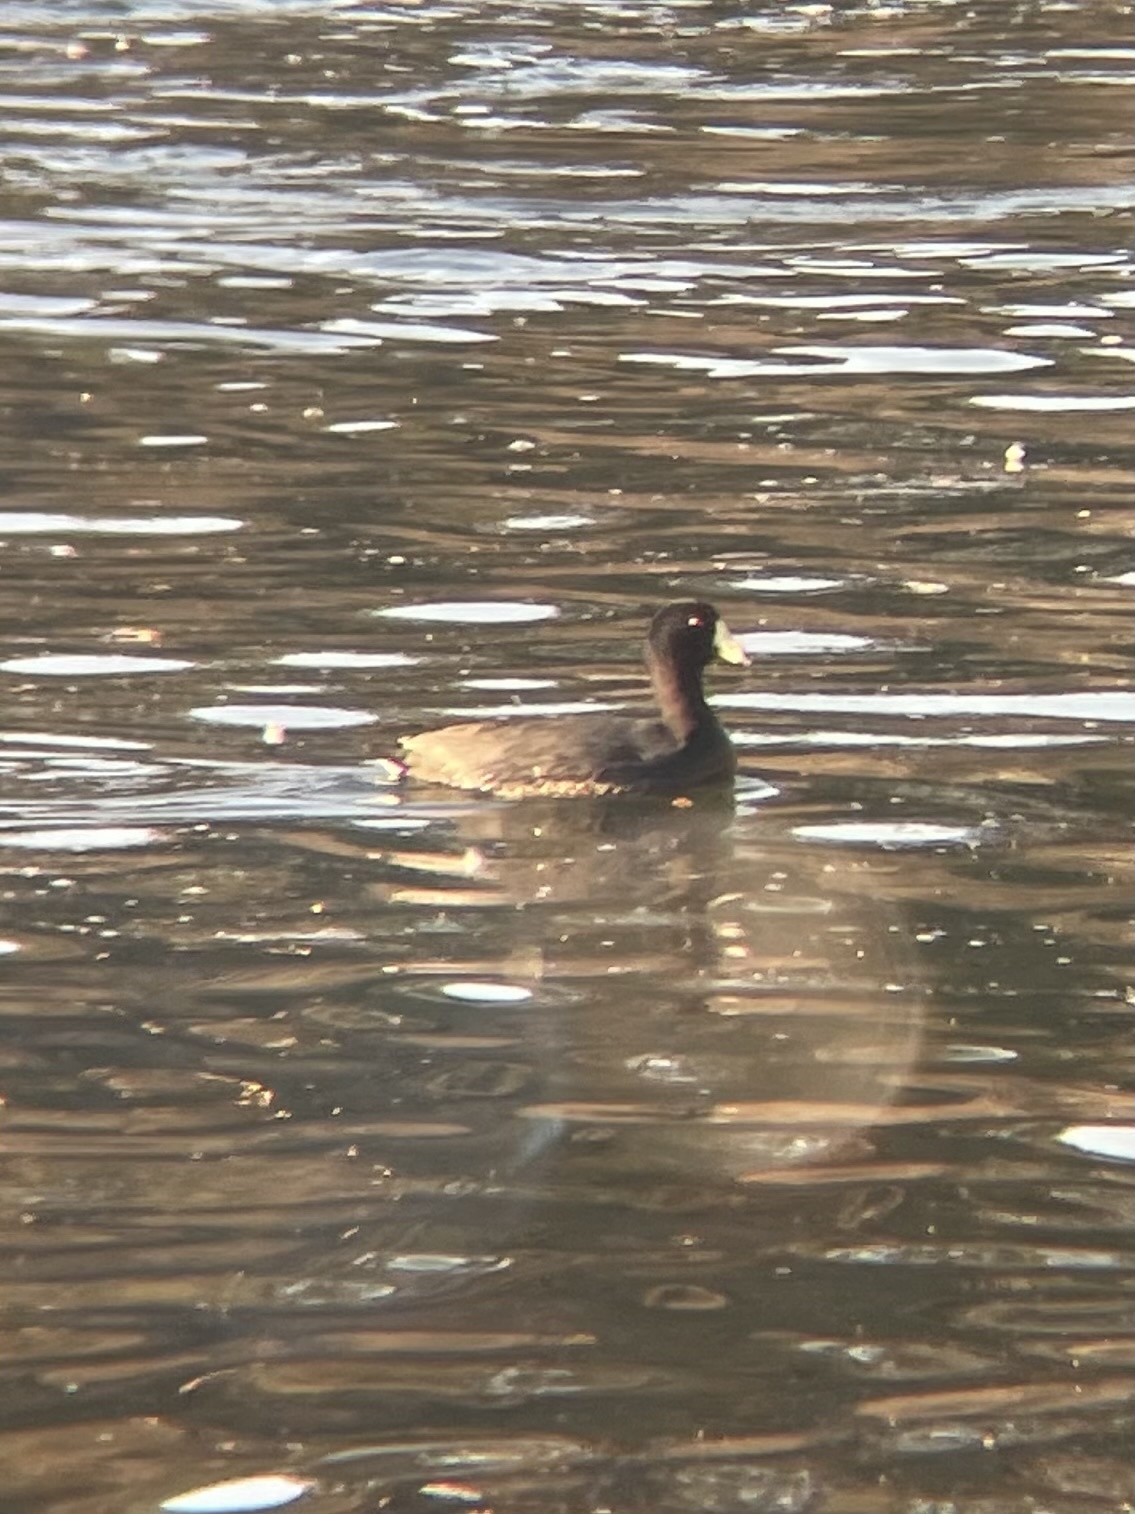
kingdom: Animalia
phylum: Chordata
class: Aves
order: Gruiformes
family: Rallidae
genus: Fulica
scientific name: Fulica americana
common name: American coot
